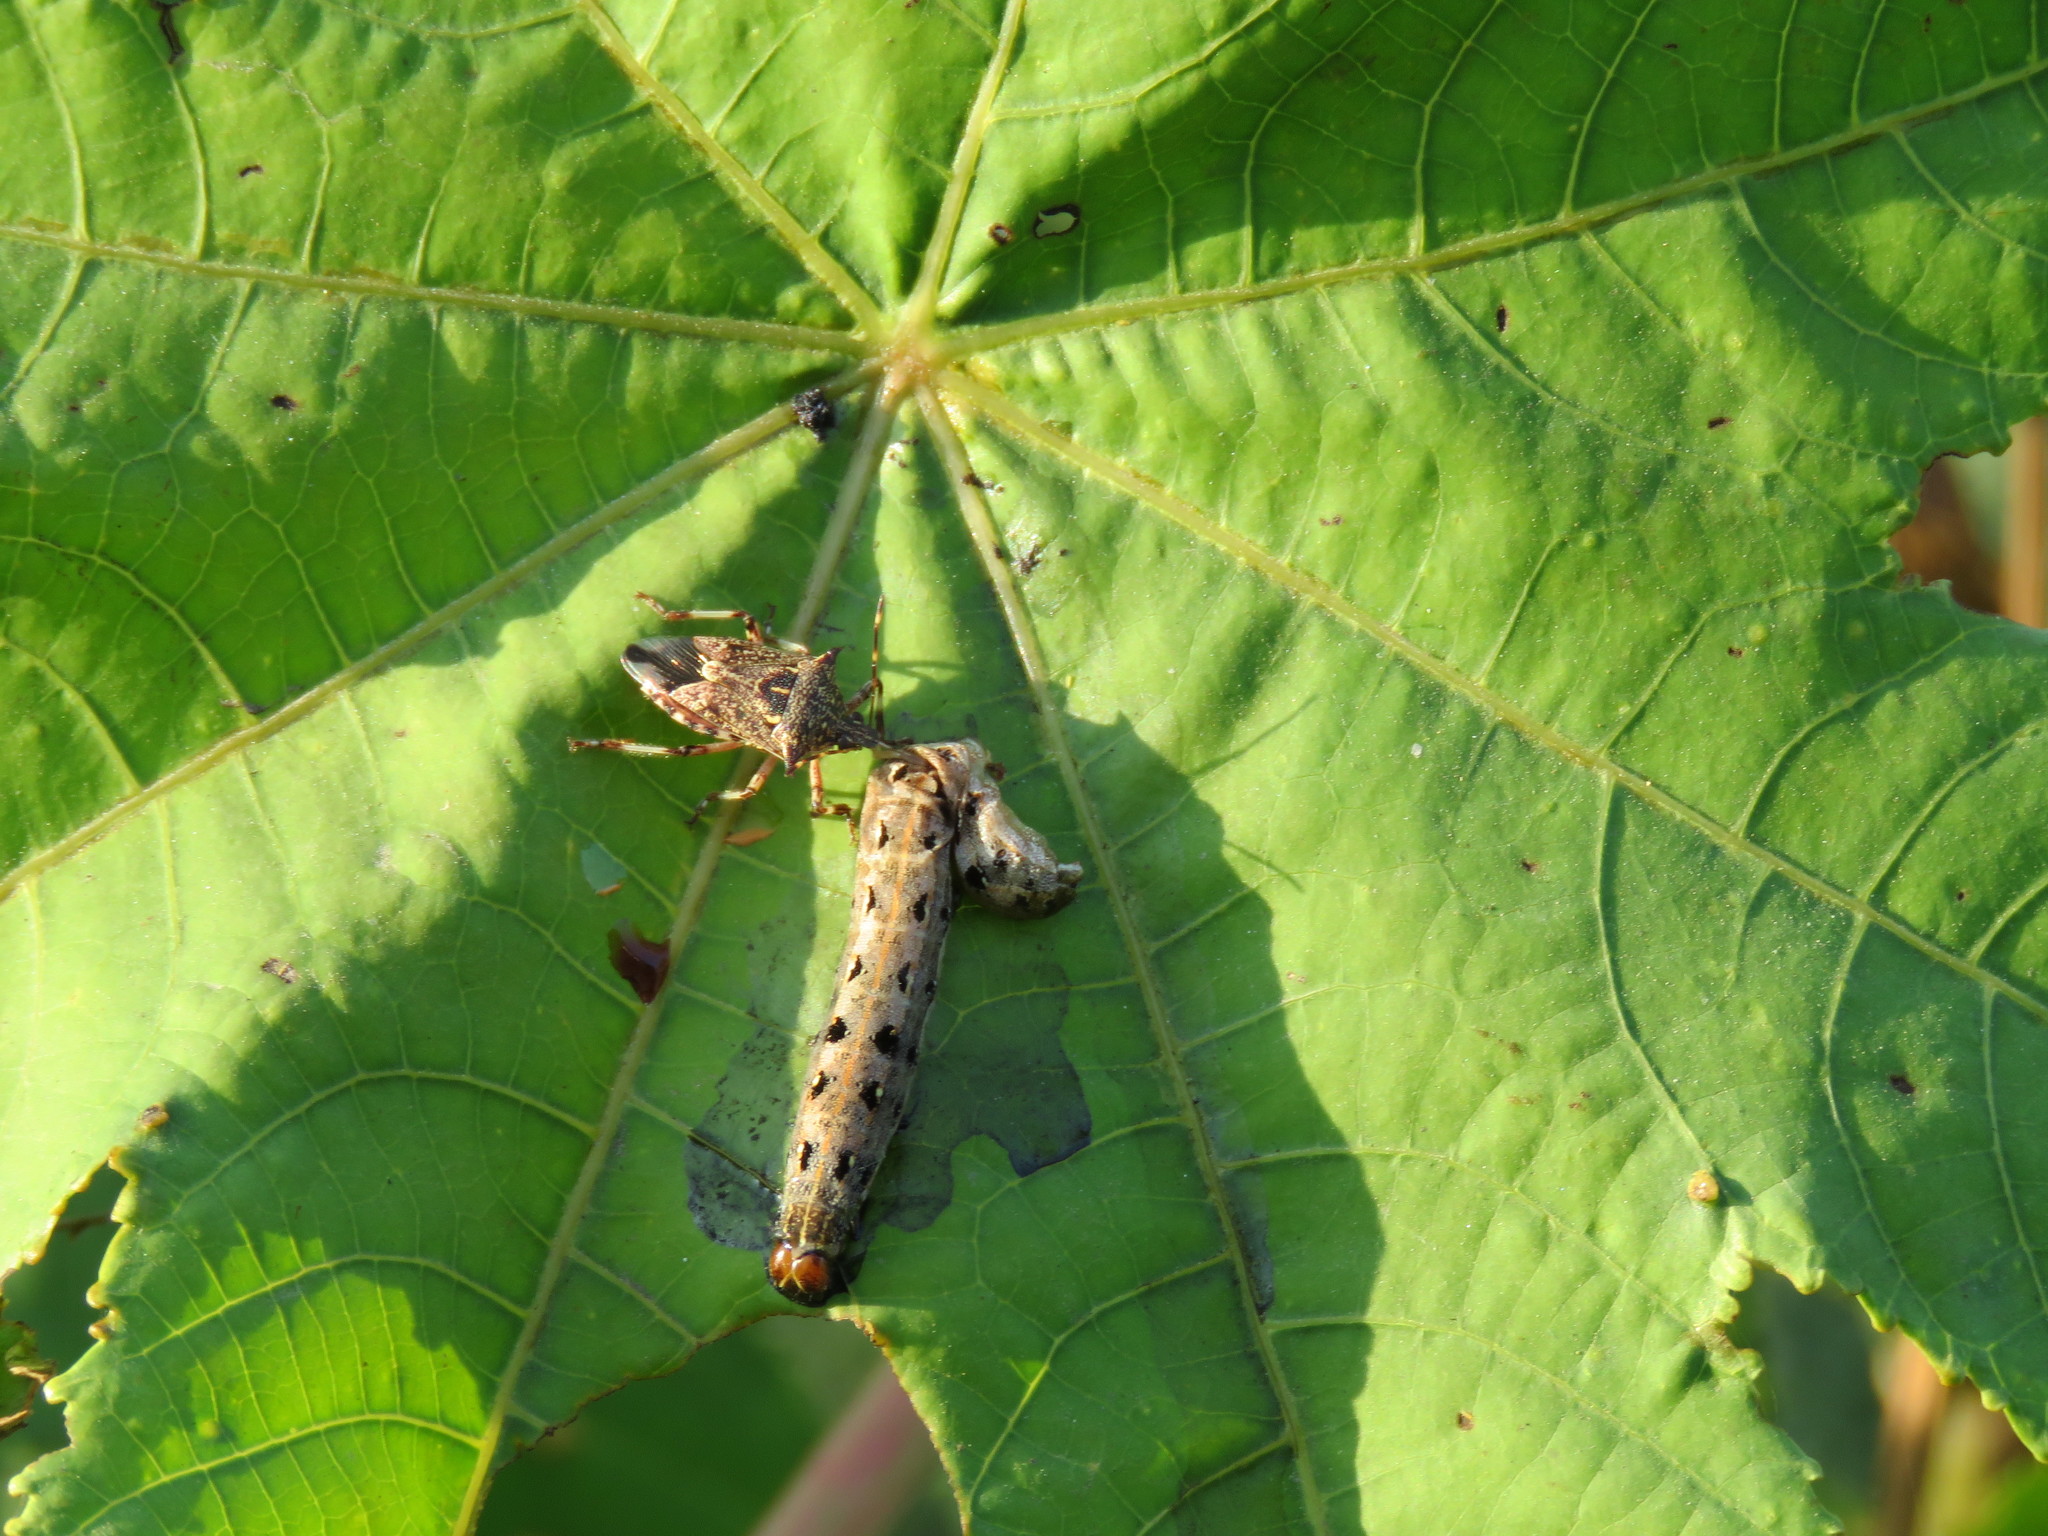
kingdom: Animalia
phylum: Arthropoda
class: Insecta
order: Lepidoptera
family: Noctuidae
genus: Spodoptera
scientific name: Spodoptera litura
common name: Asian cotton leafworm
